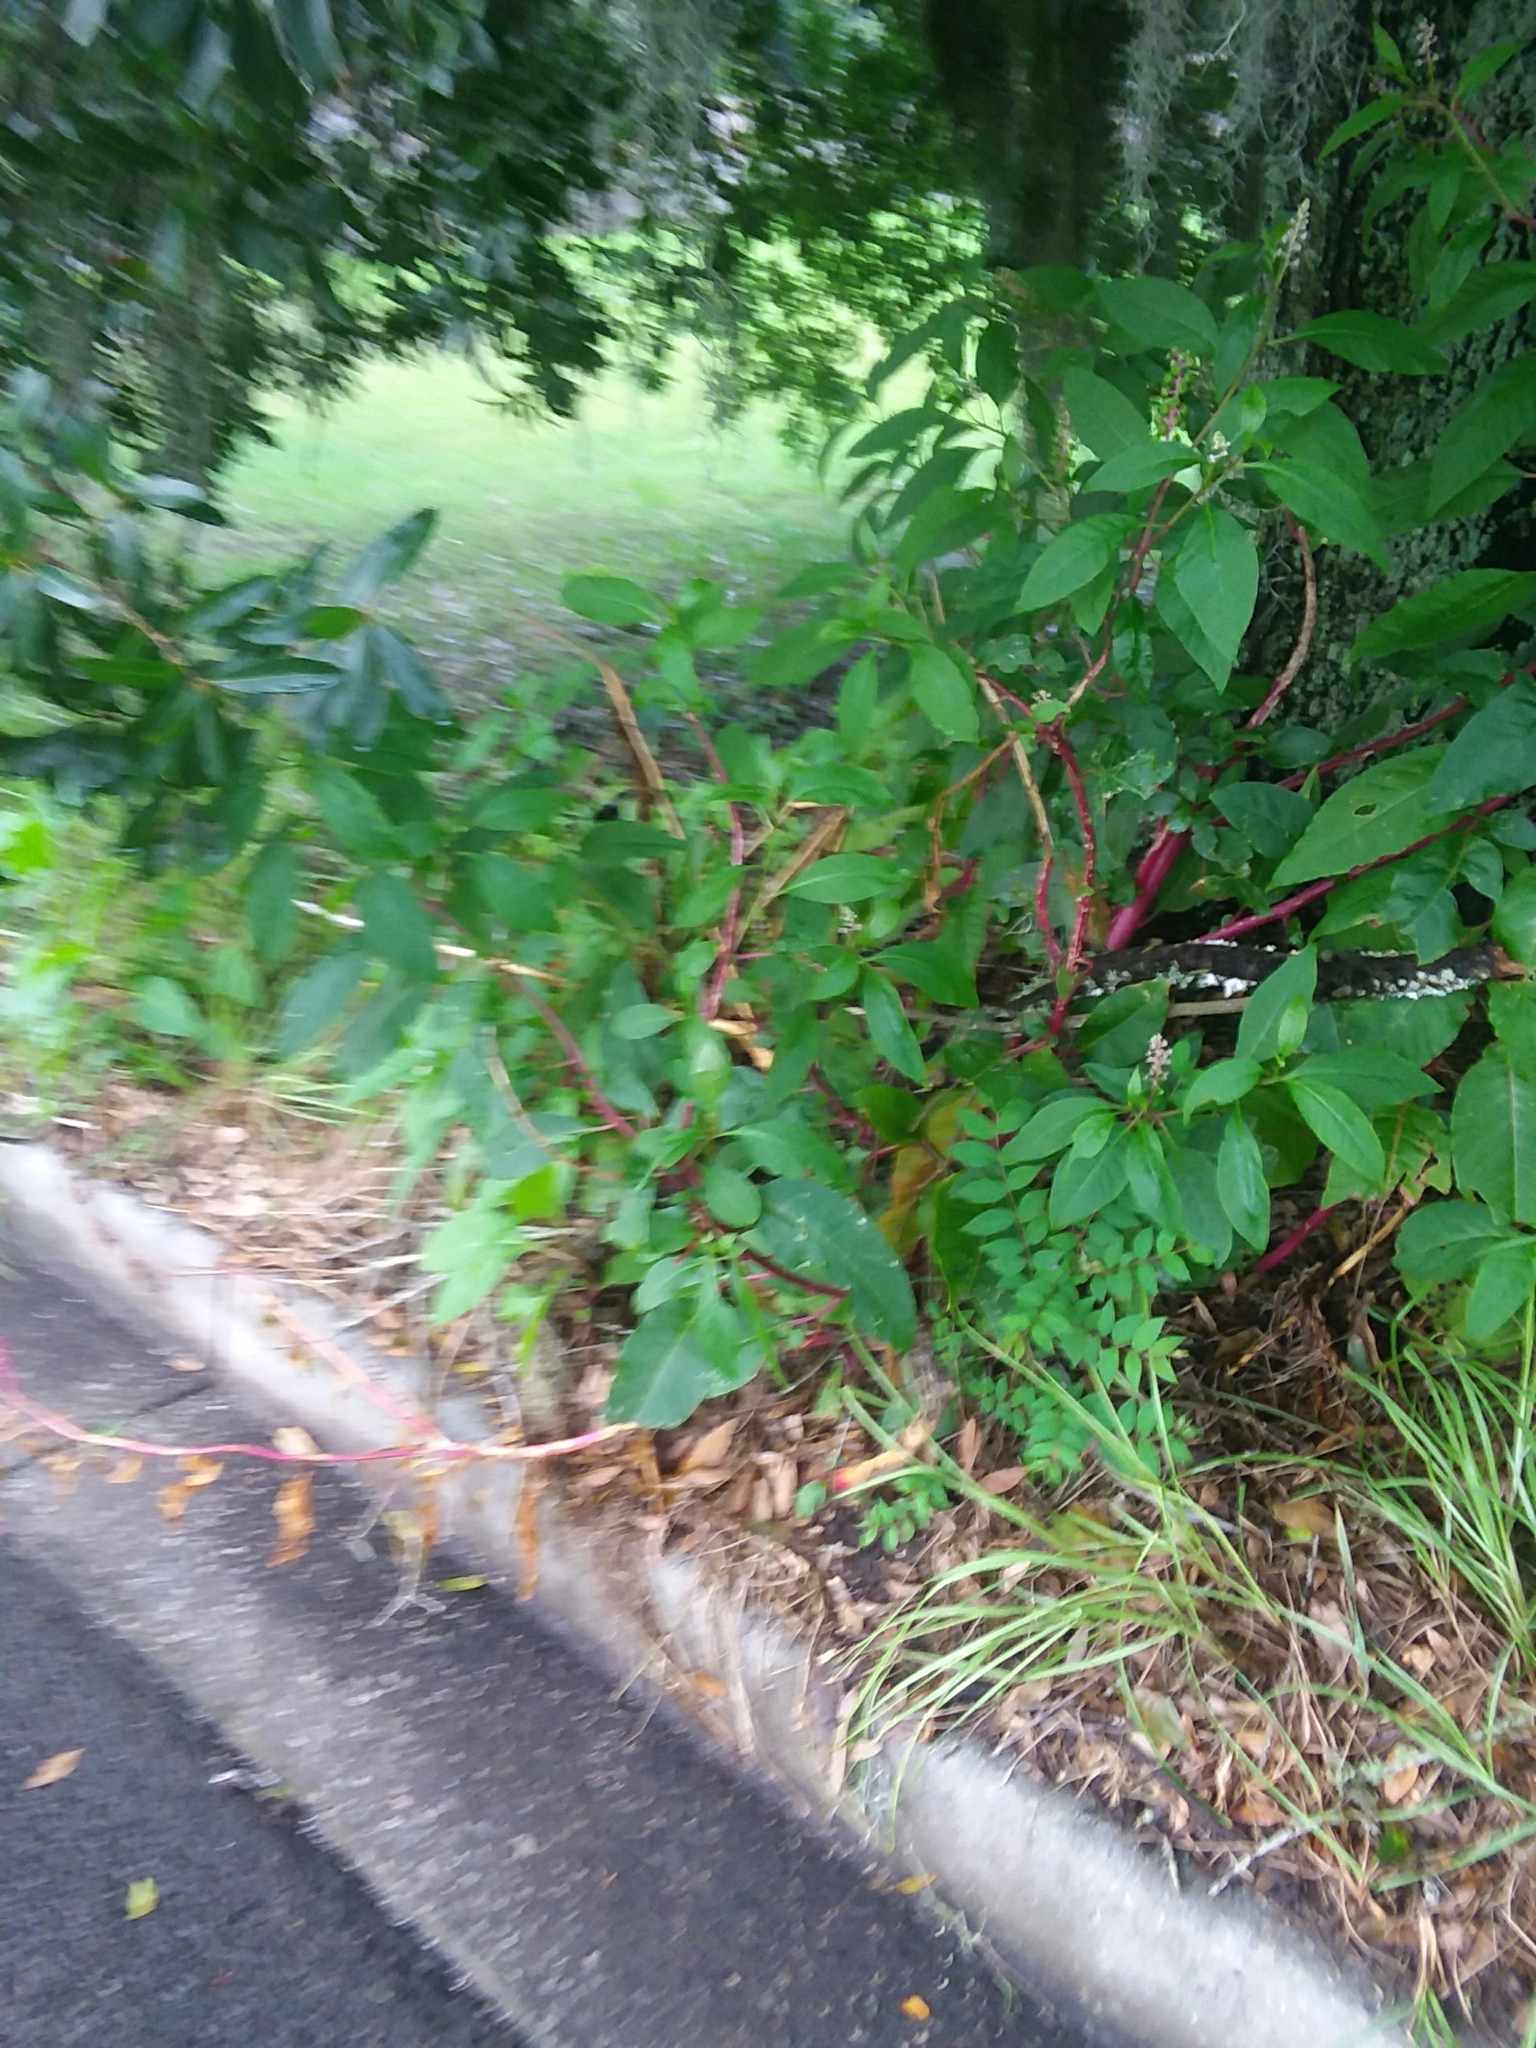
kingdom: Plantae
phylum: Tracheophyta
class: Magnoliopsida
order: Caryophyllales
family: Phytolaccaceae
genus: Phytolacca
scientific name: Phytolacca americana
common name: American pokeweed
